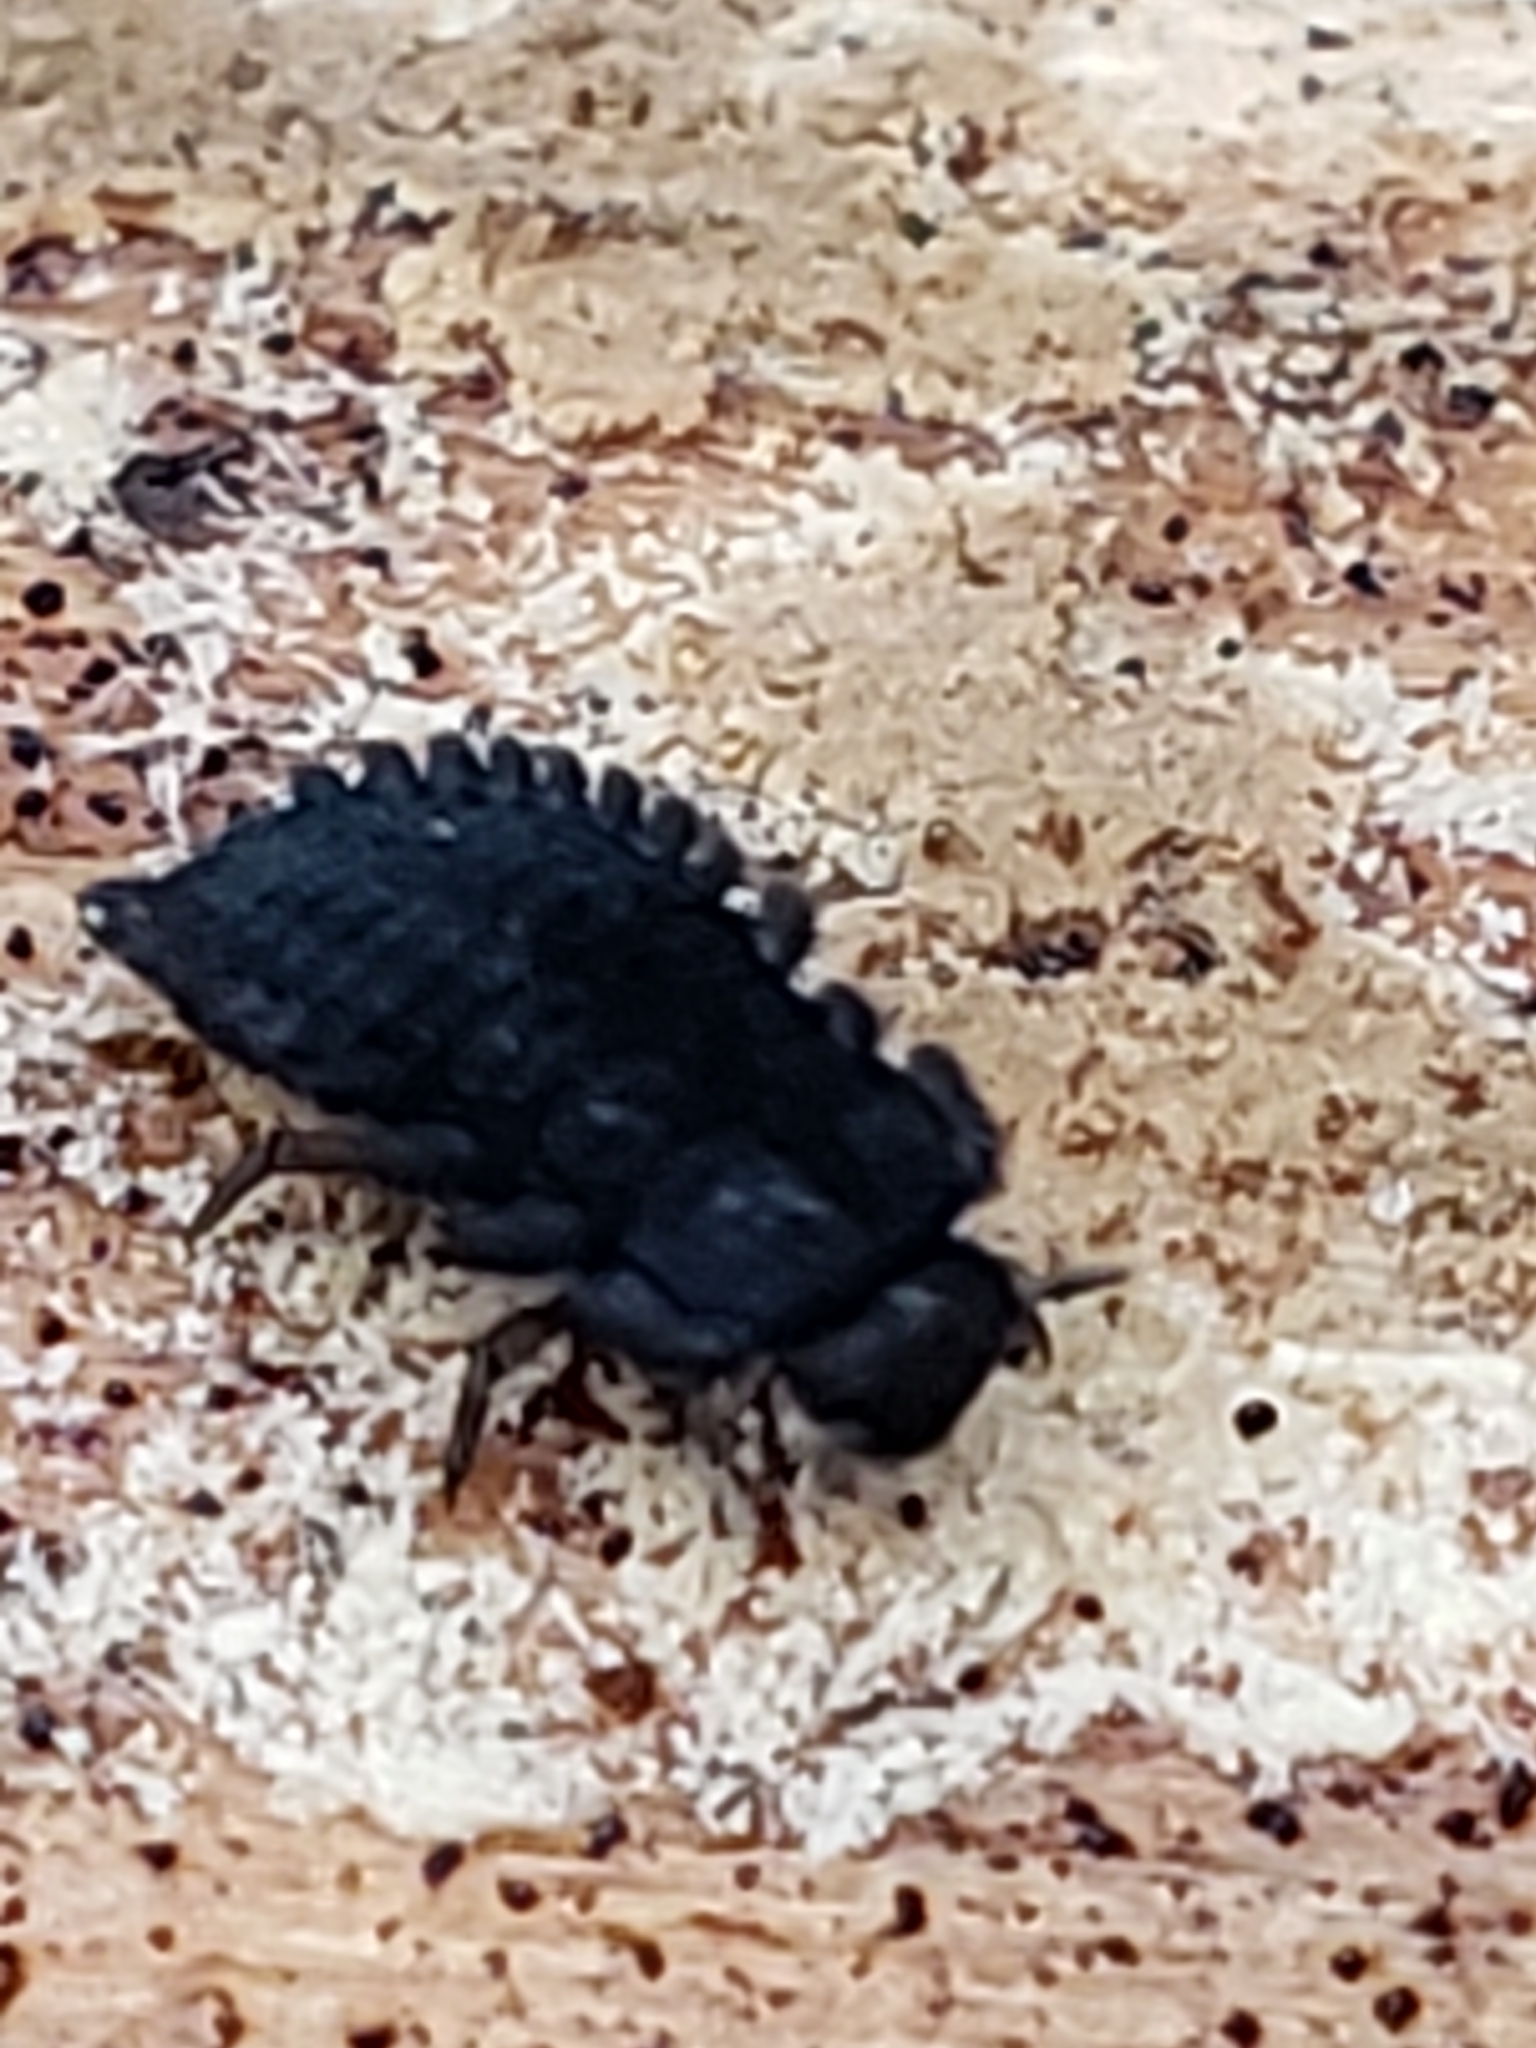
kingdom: Animalia
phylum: Arthropoda
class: Insecta
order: Coleoptera
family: Endomychidae
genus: Aphorista
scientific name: Aphorista vittata
